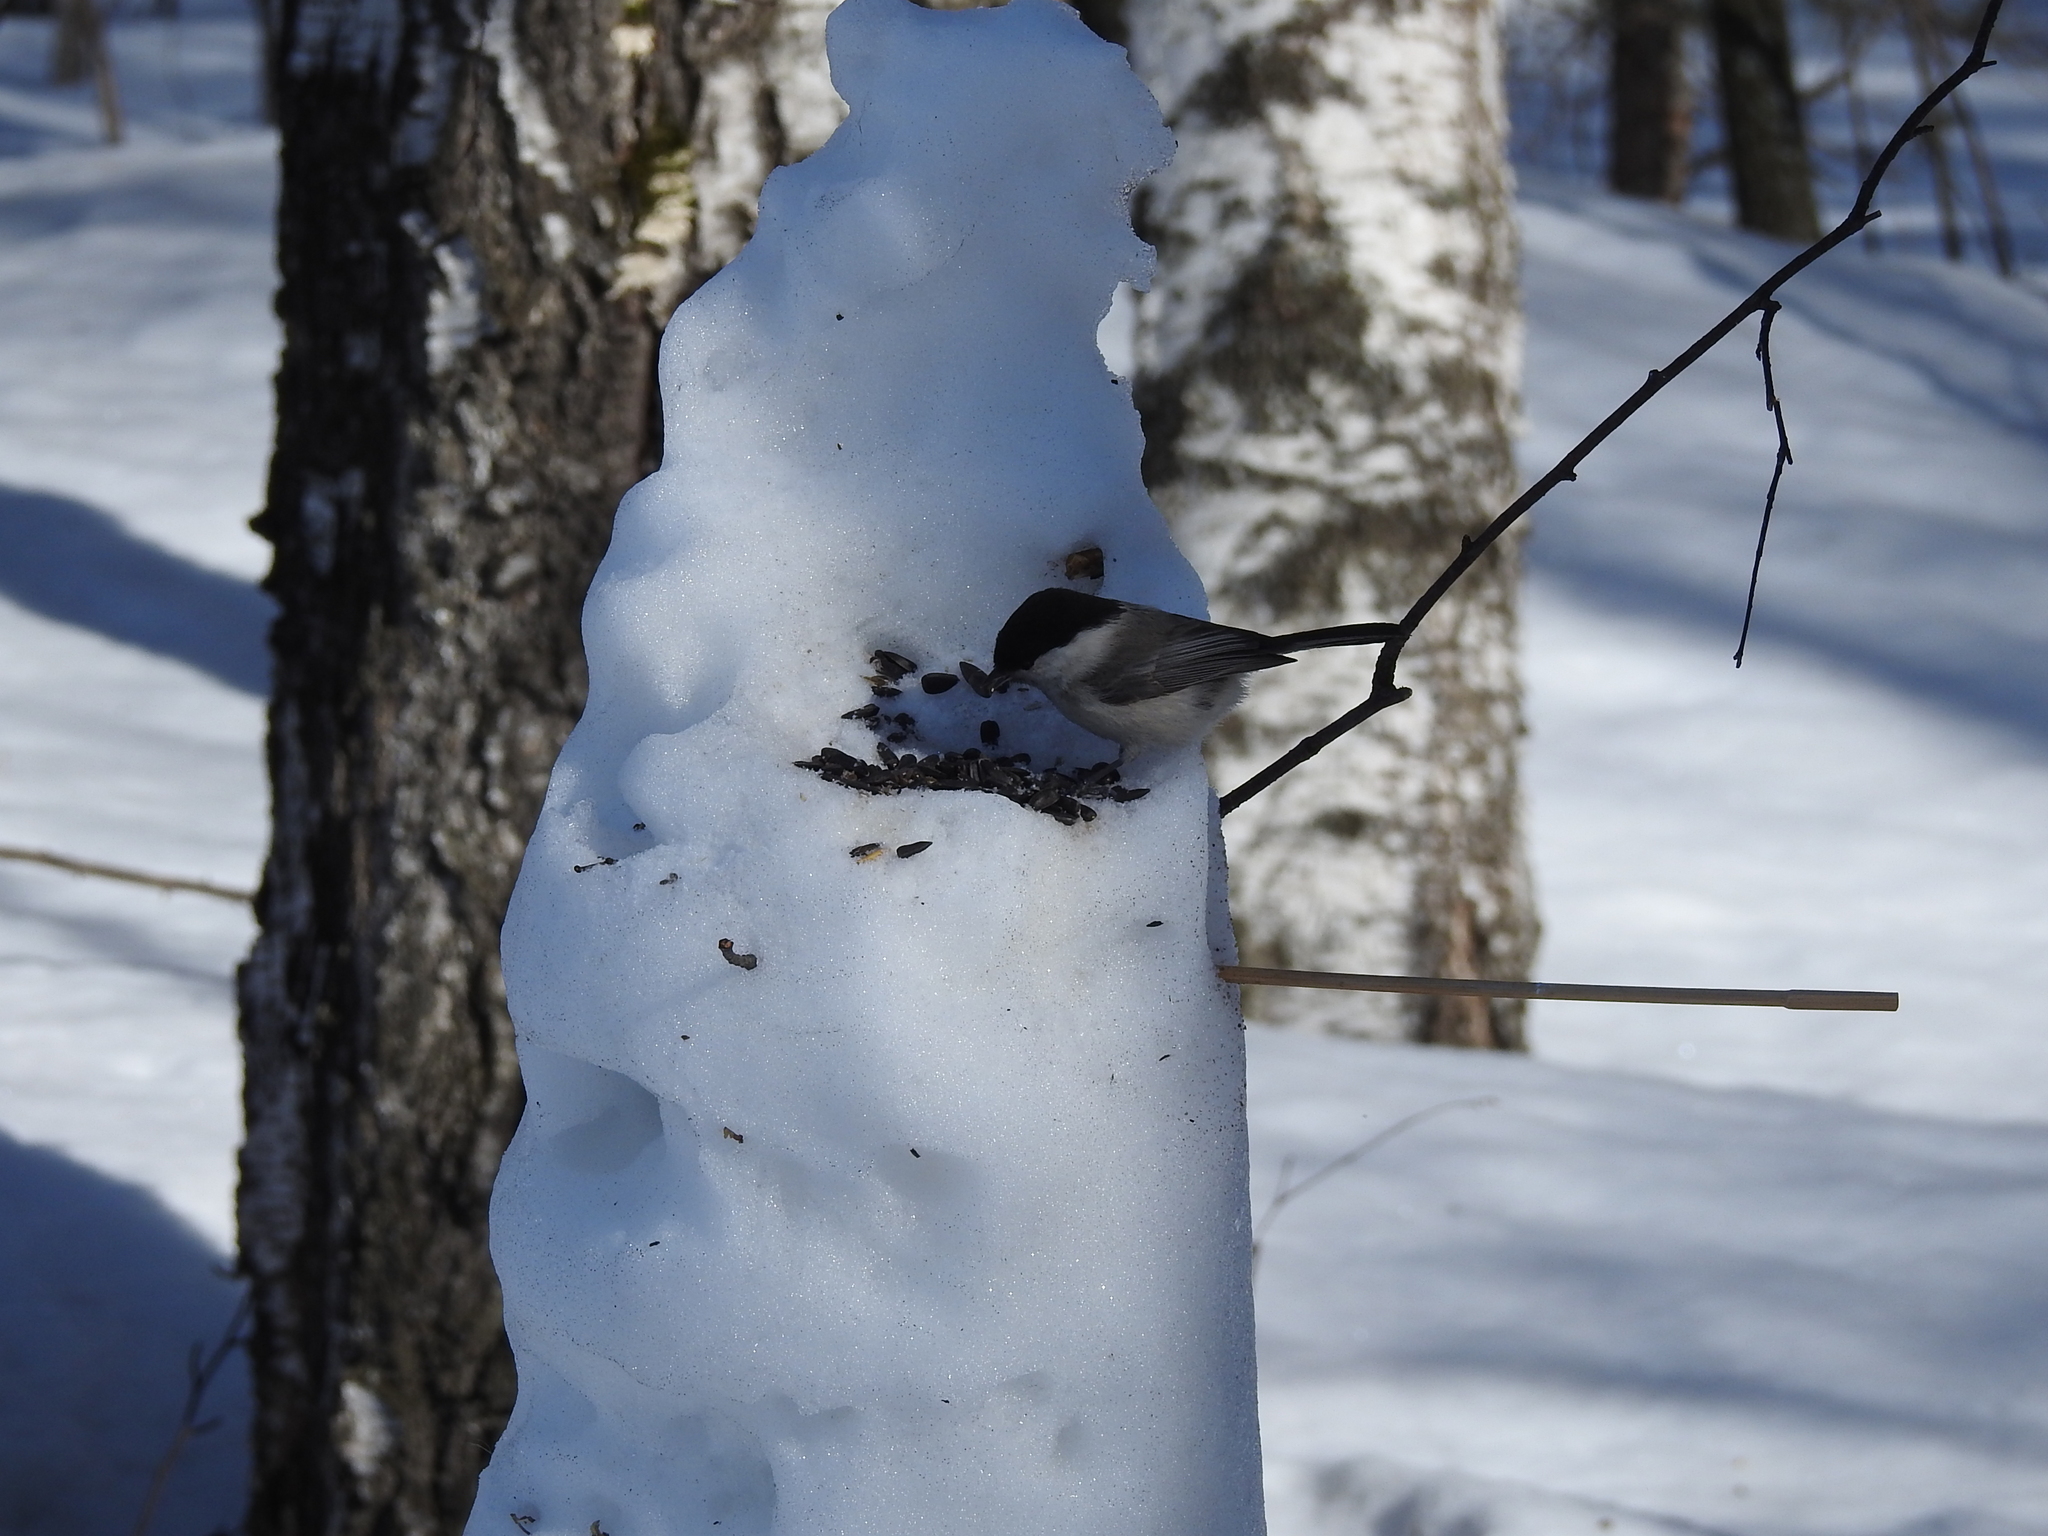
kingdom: Animalia
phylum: Chordata
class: Aves
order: Passeriformes
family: Paridae
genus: Poecile
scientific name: Poecile montanus
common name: Willow tit
